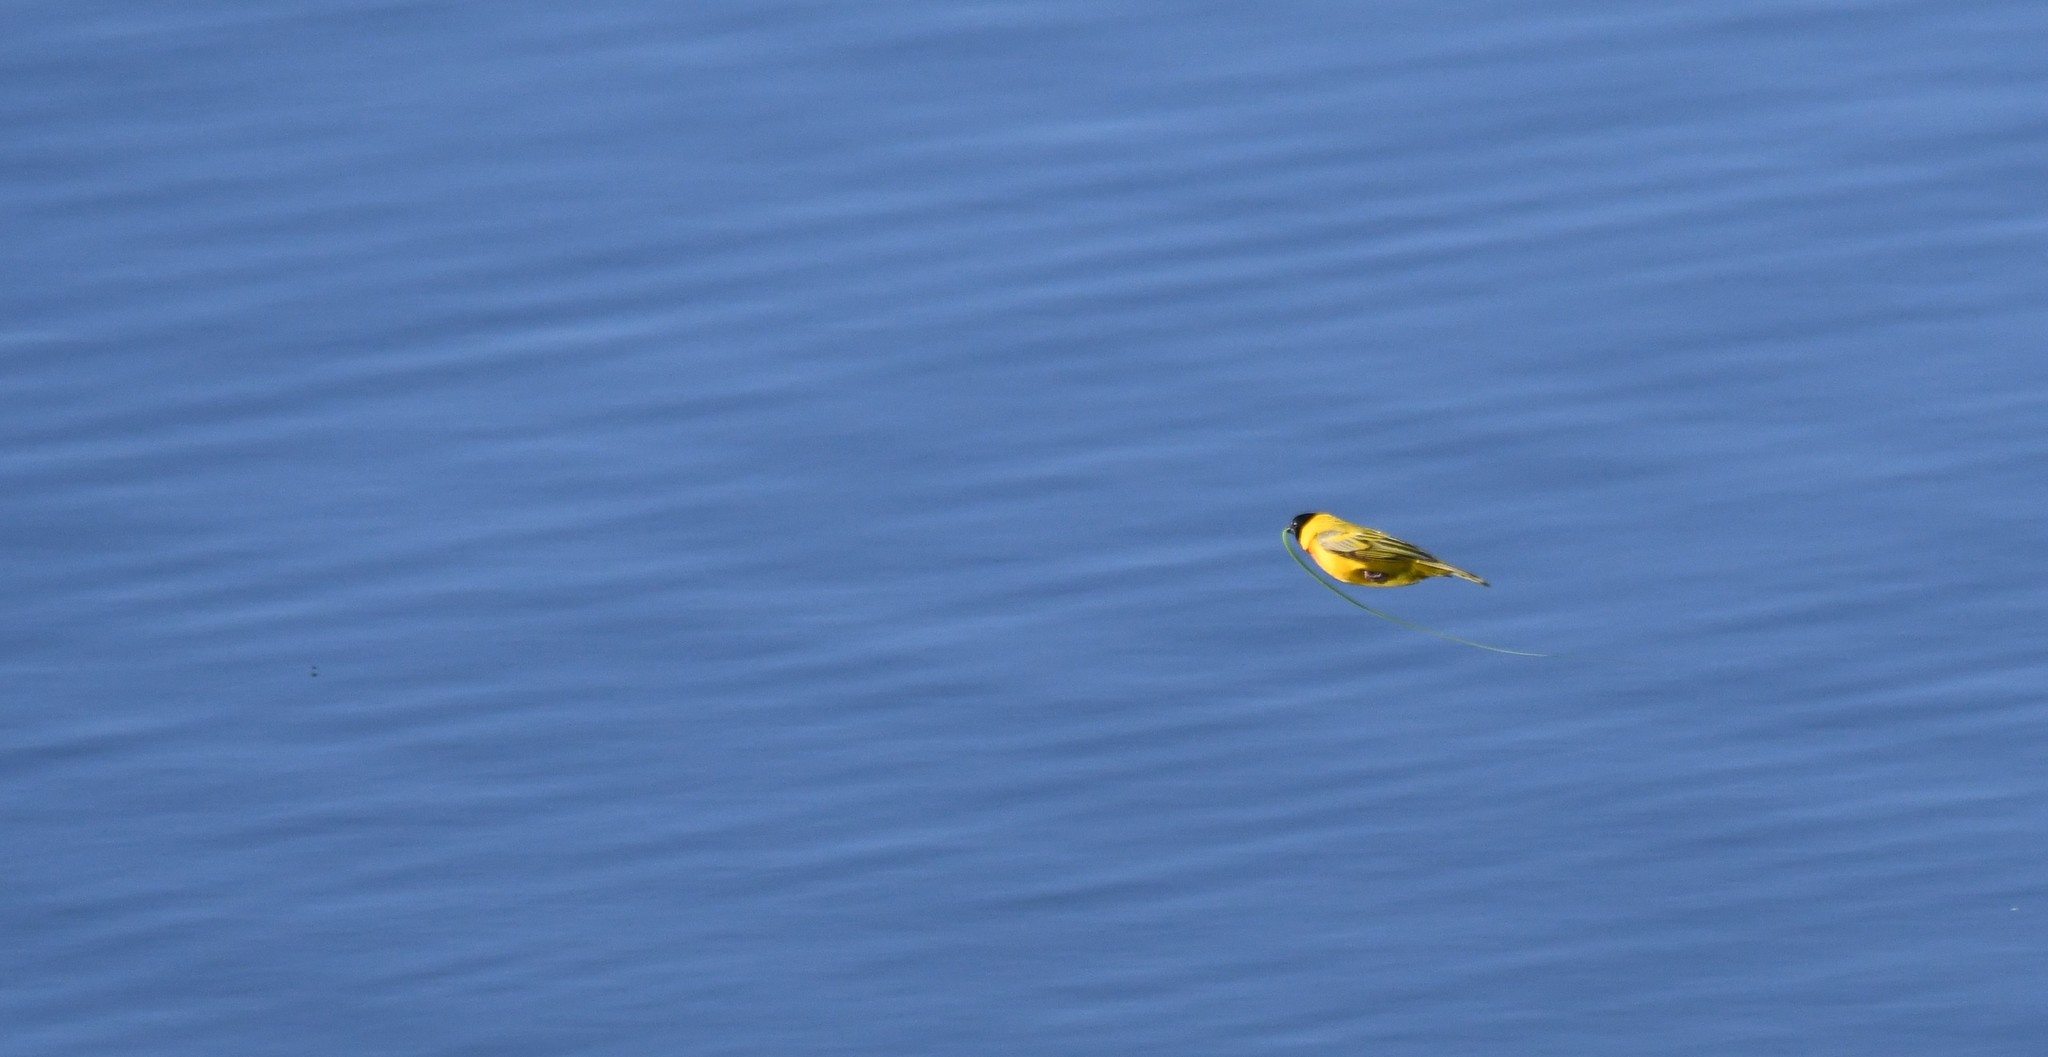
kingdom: Animalia
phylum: Chordata
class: Aves
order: Passeriformes
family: Ploceidae
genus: Ploceus
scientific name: Ploceus melanocephalus
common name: Black-headed weaver
